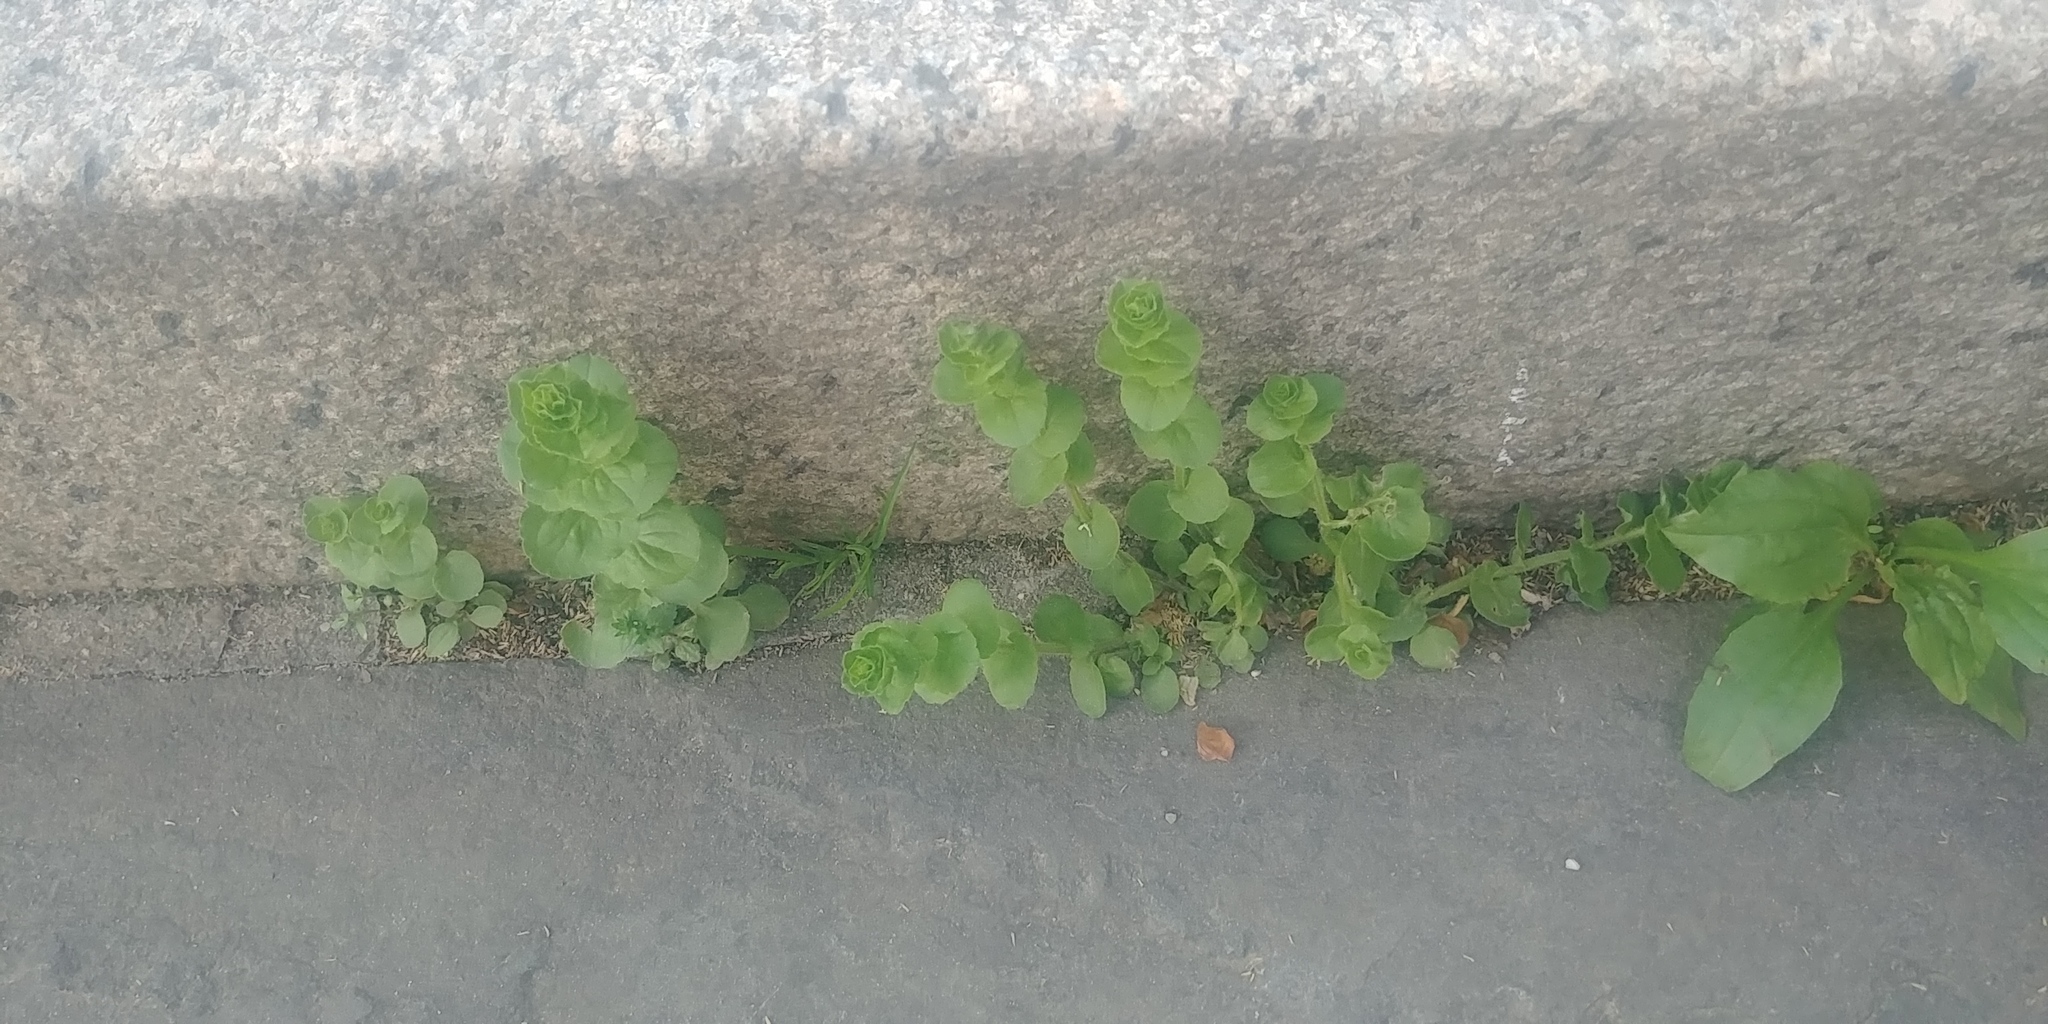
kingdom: Plantae
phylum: Tracheophyta
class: Magnoliopsida
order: Asterales
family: Campanulaceae
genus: Triodanis
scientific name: Triodanis perfoliata
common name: Clasping venus' looking-glass
